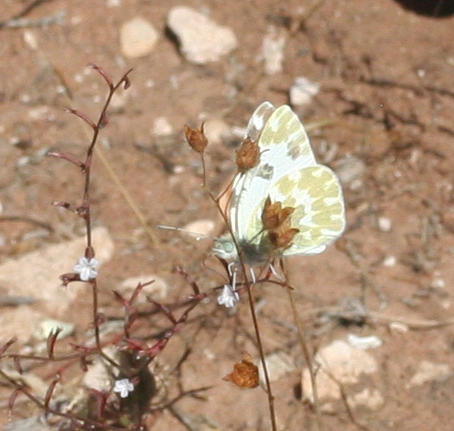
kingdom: Animalia
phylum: Arthropoda
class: Insecta
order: Lepidoptera
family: Pieridae
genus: Pontia
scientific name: Pontia daplidice
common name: Bath white
